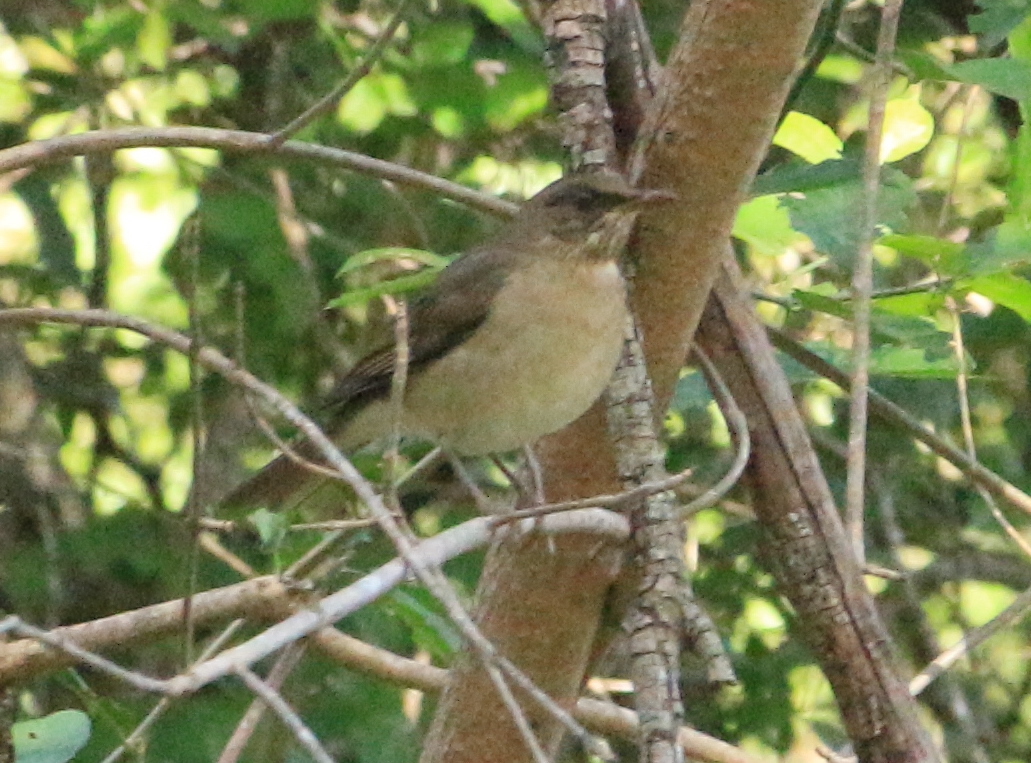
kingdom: Animalia
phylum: Chordata
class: Aves
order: Passeriformes
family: Turdidae
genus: Turdus
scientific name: Turdus amaurochalinus
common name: Creamy-bellied thrush
